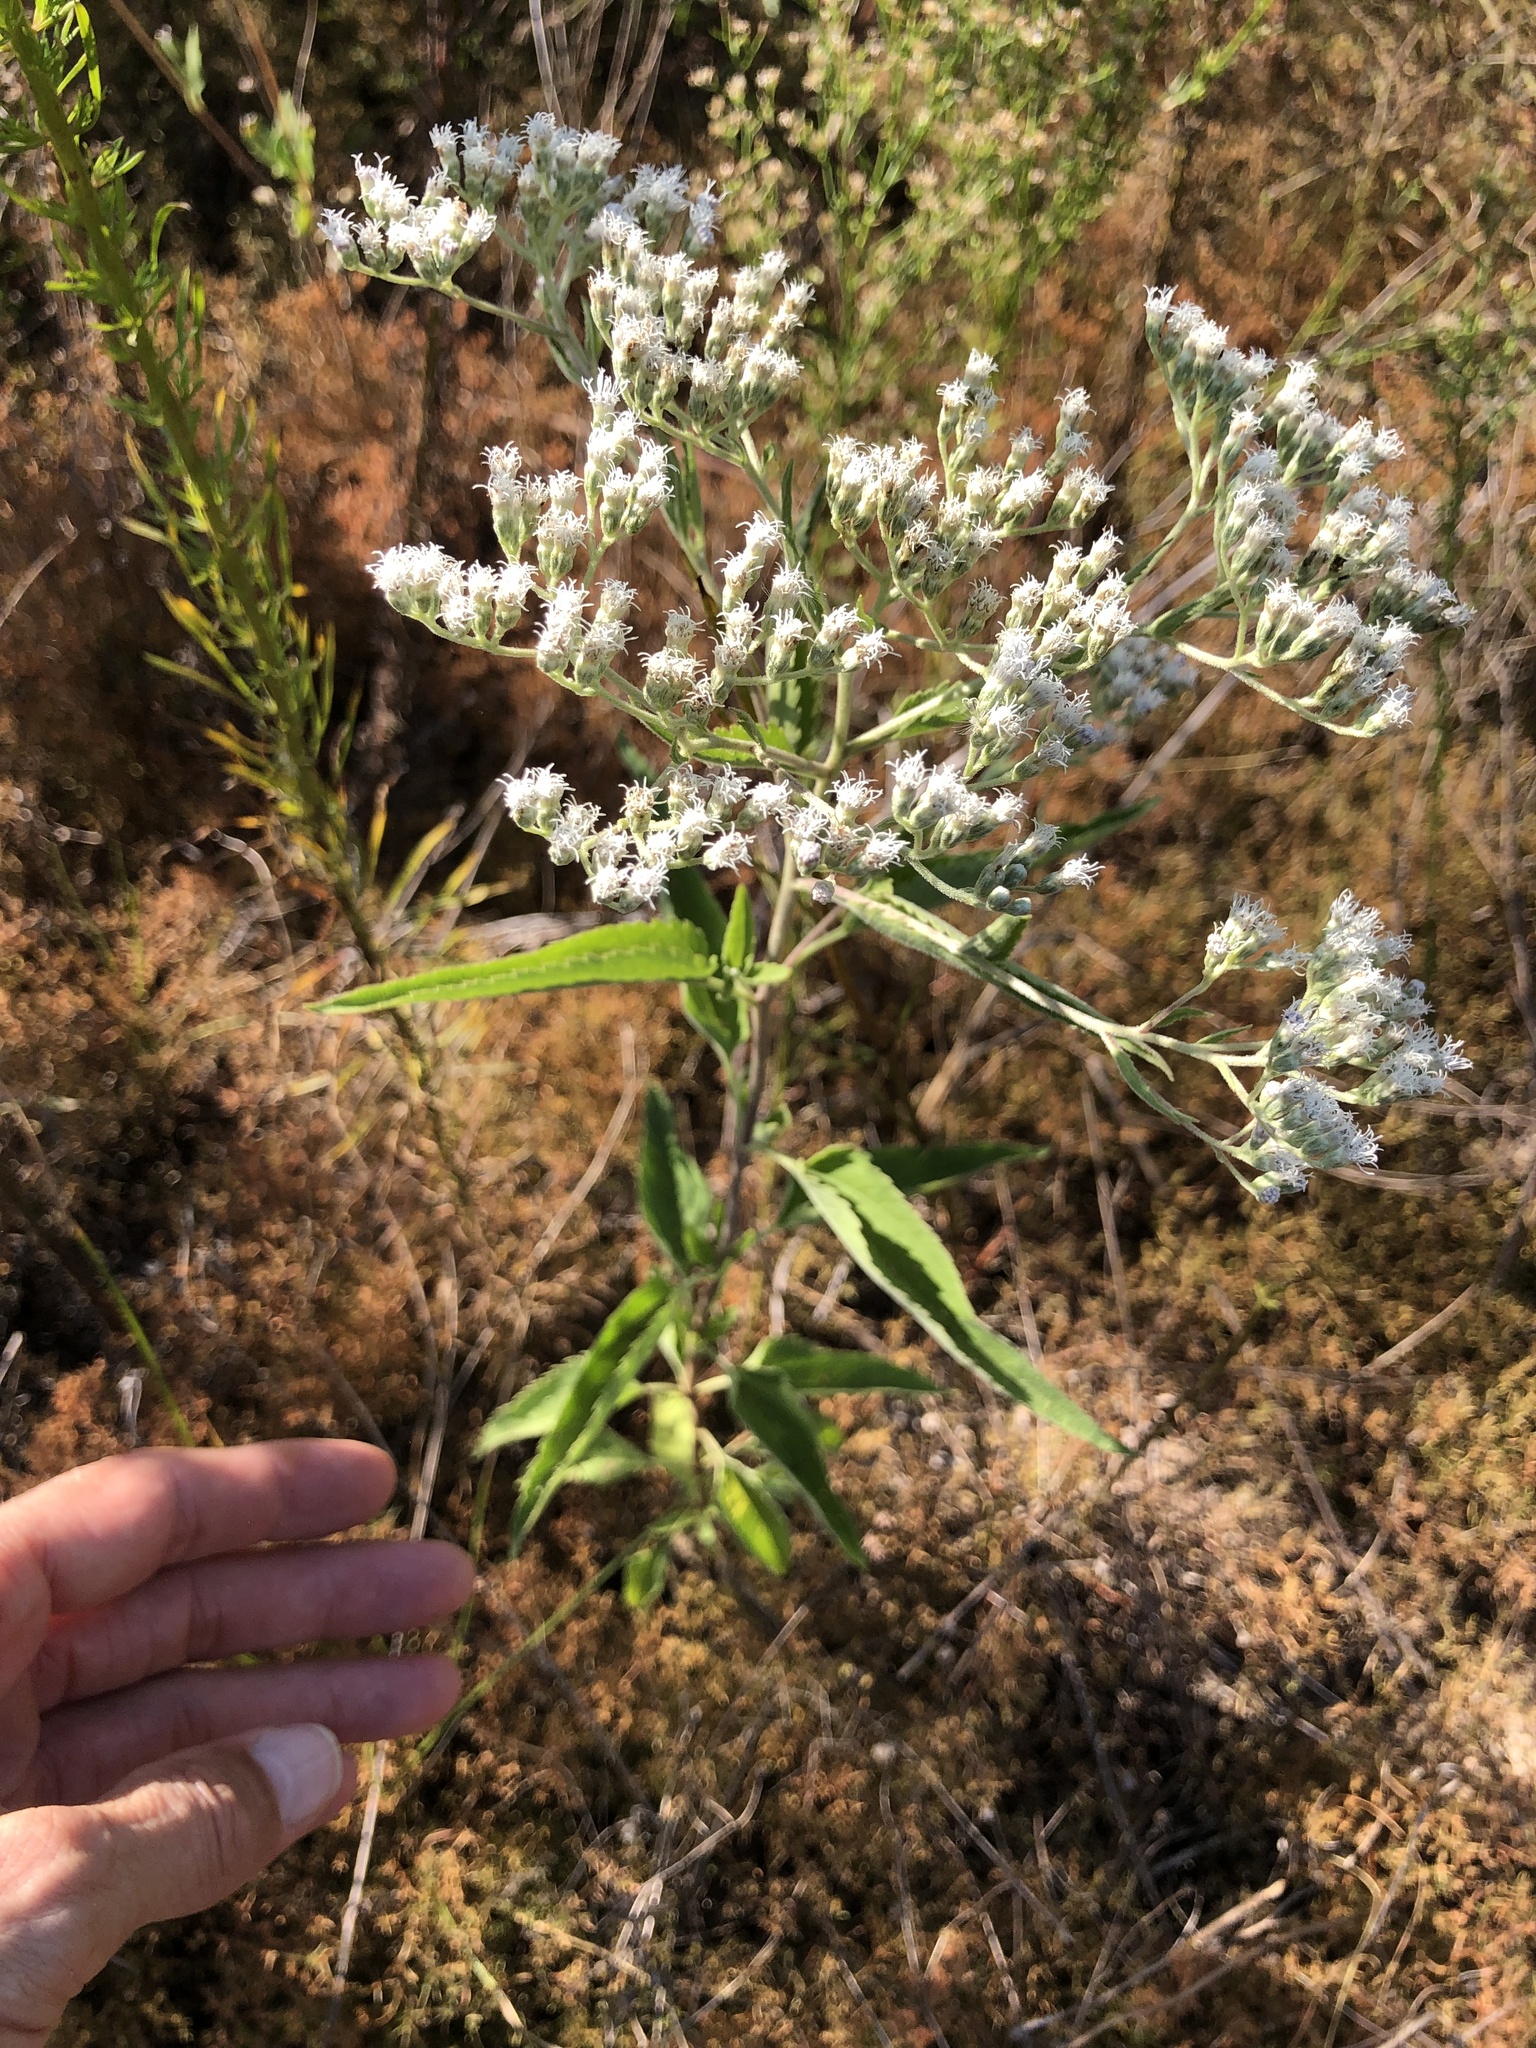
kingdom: Plantae
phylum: Tracheophyta
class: Magnoliopsida
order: Asterales
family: Asteraceae
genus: Eupatorium
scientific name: Eupatorium serotinum
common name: Late boneset
